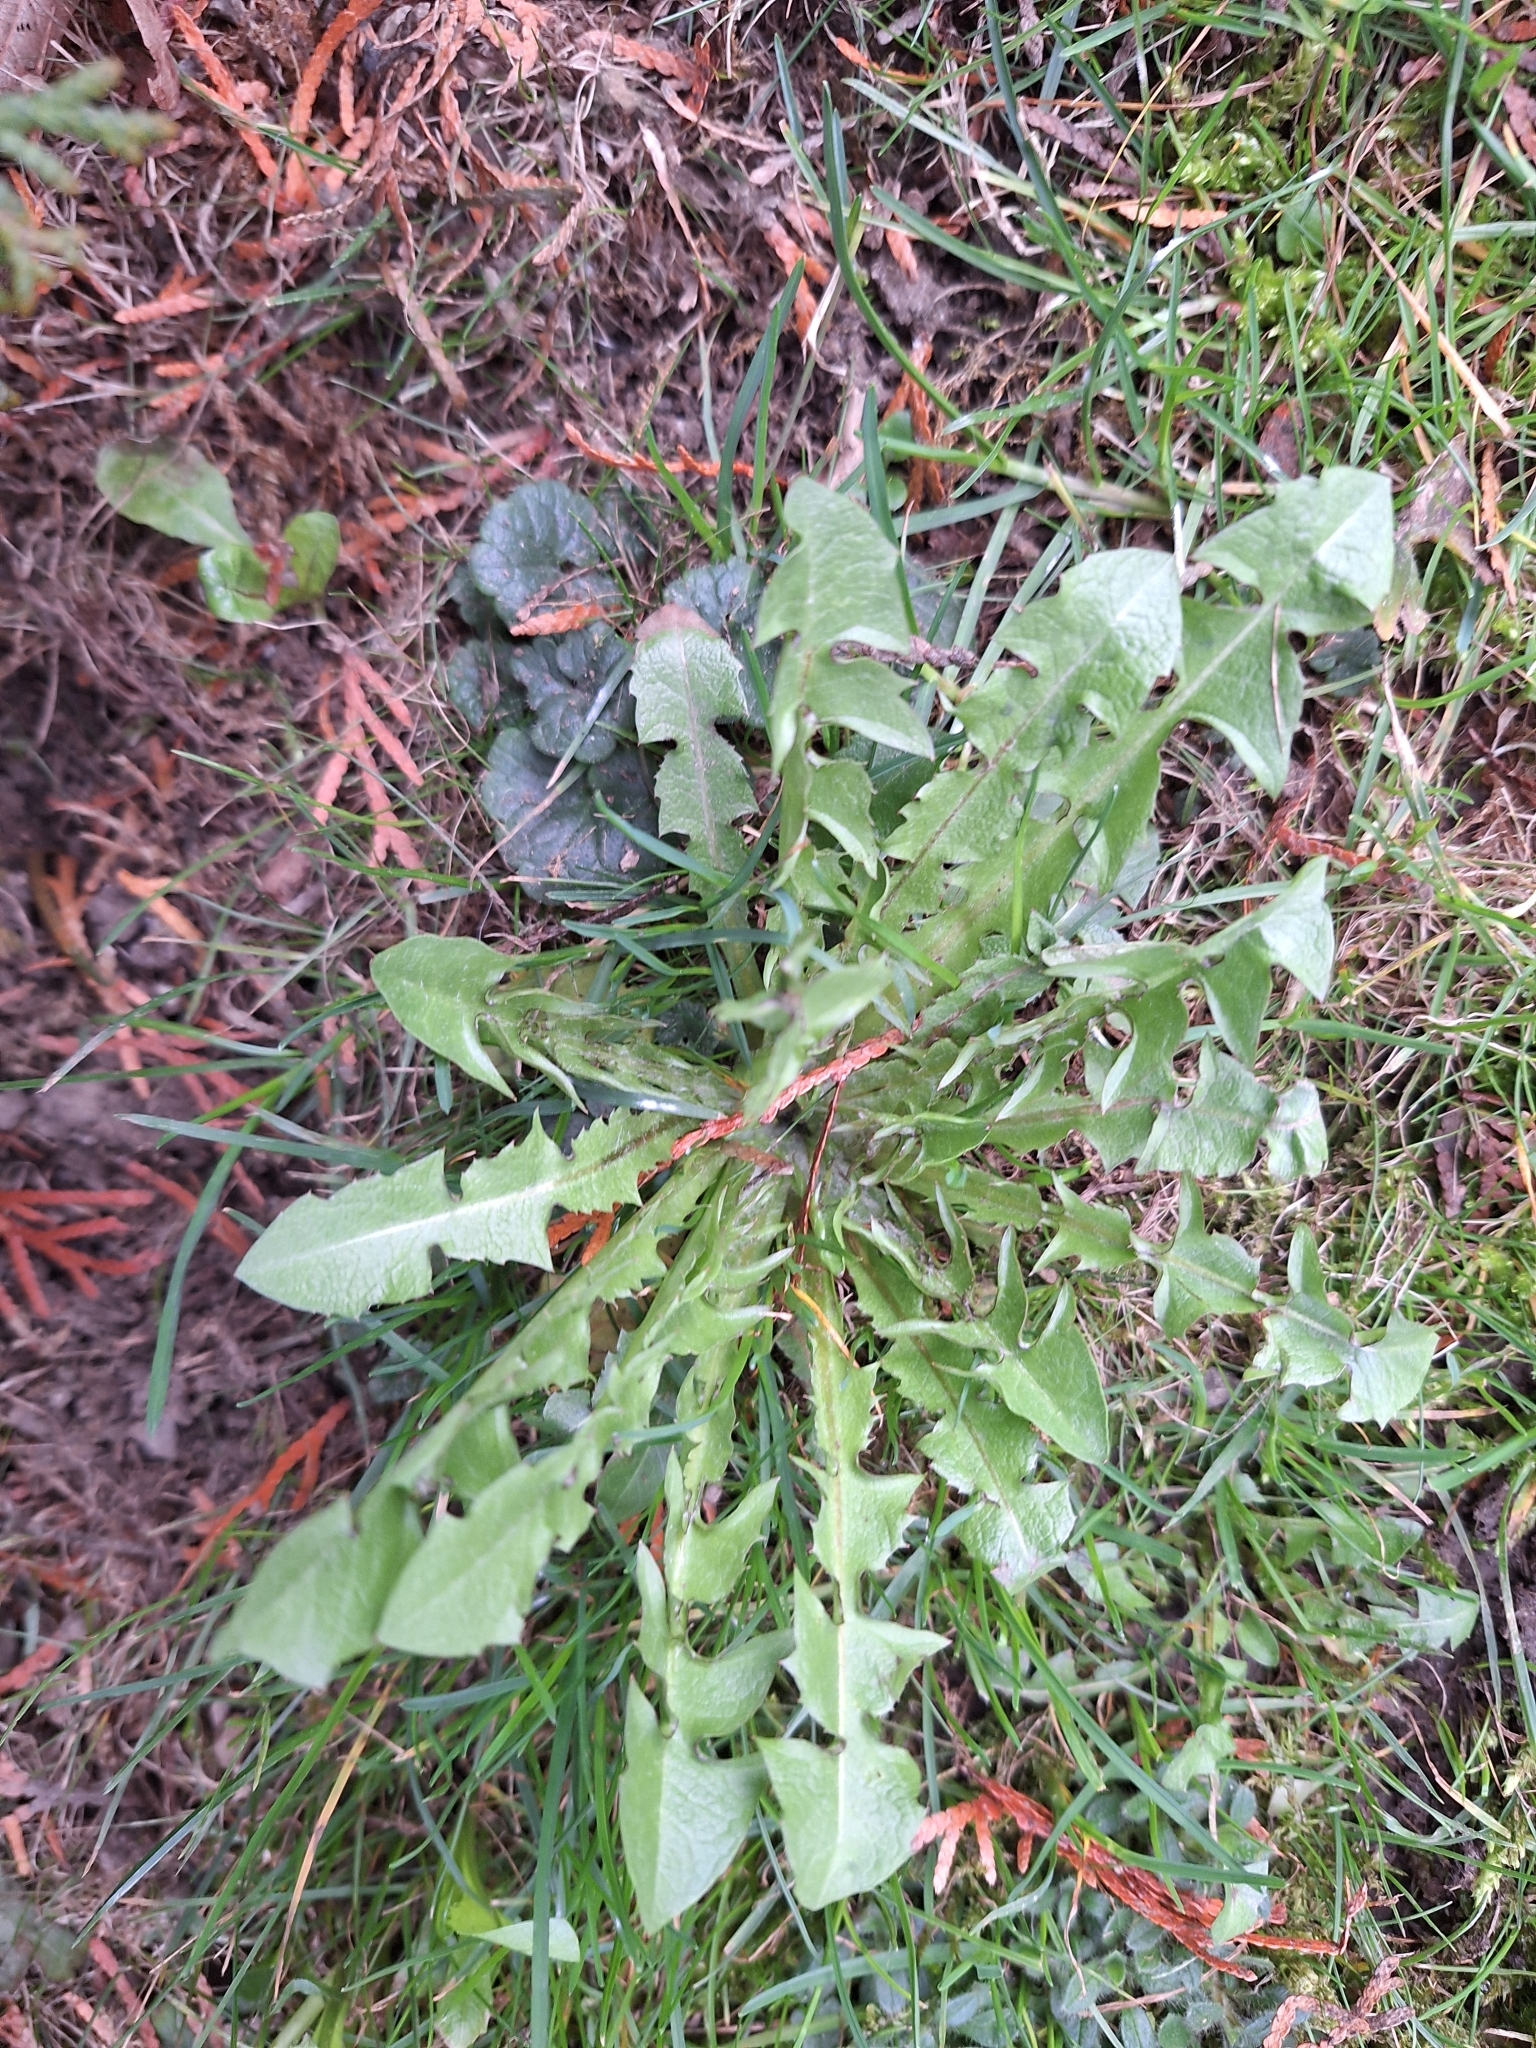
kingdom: Plantae
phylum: Tracheophyta
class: Magnoliopsida
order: Asterales
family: Asteraceae
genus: Taraxacum
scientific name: Taraxacum officinale
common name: Common dandelion
